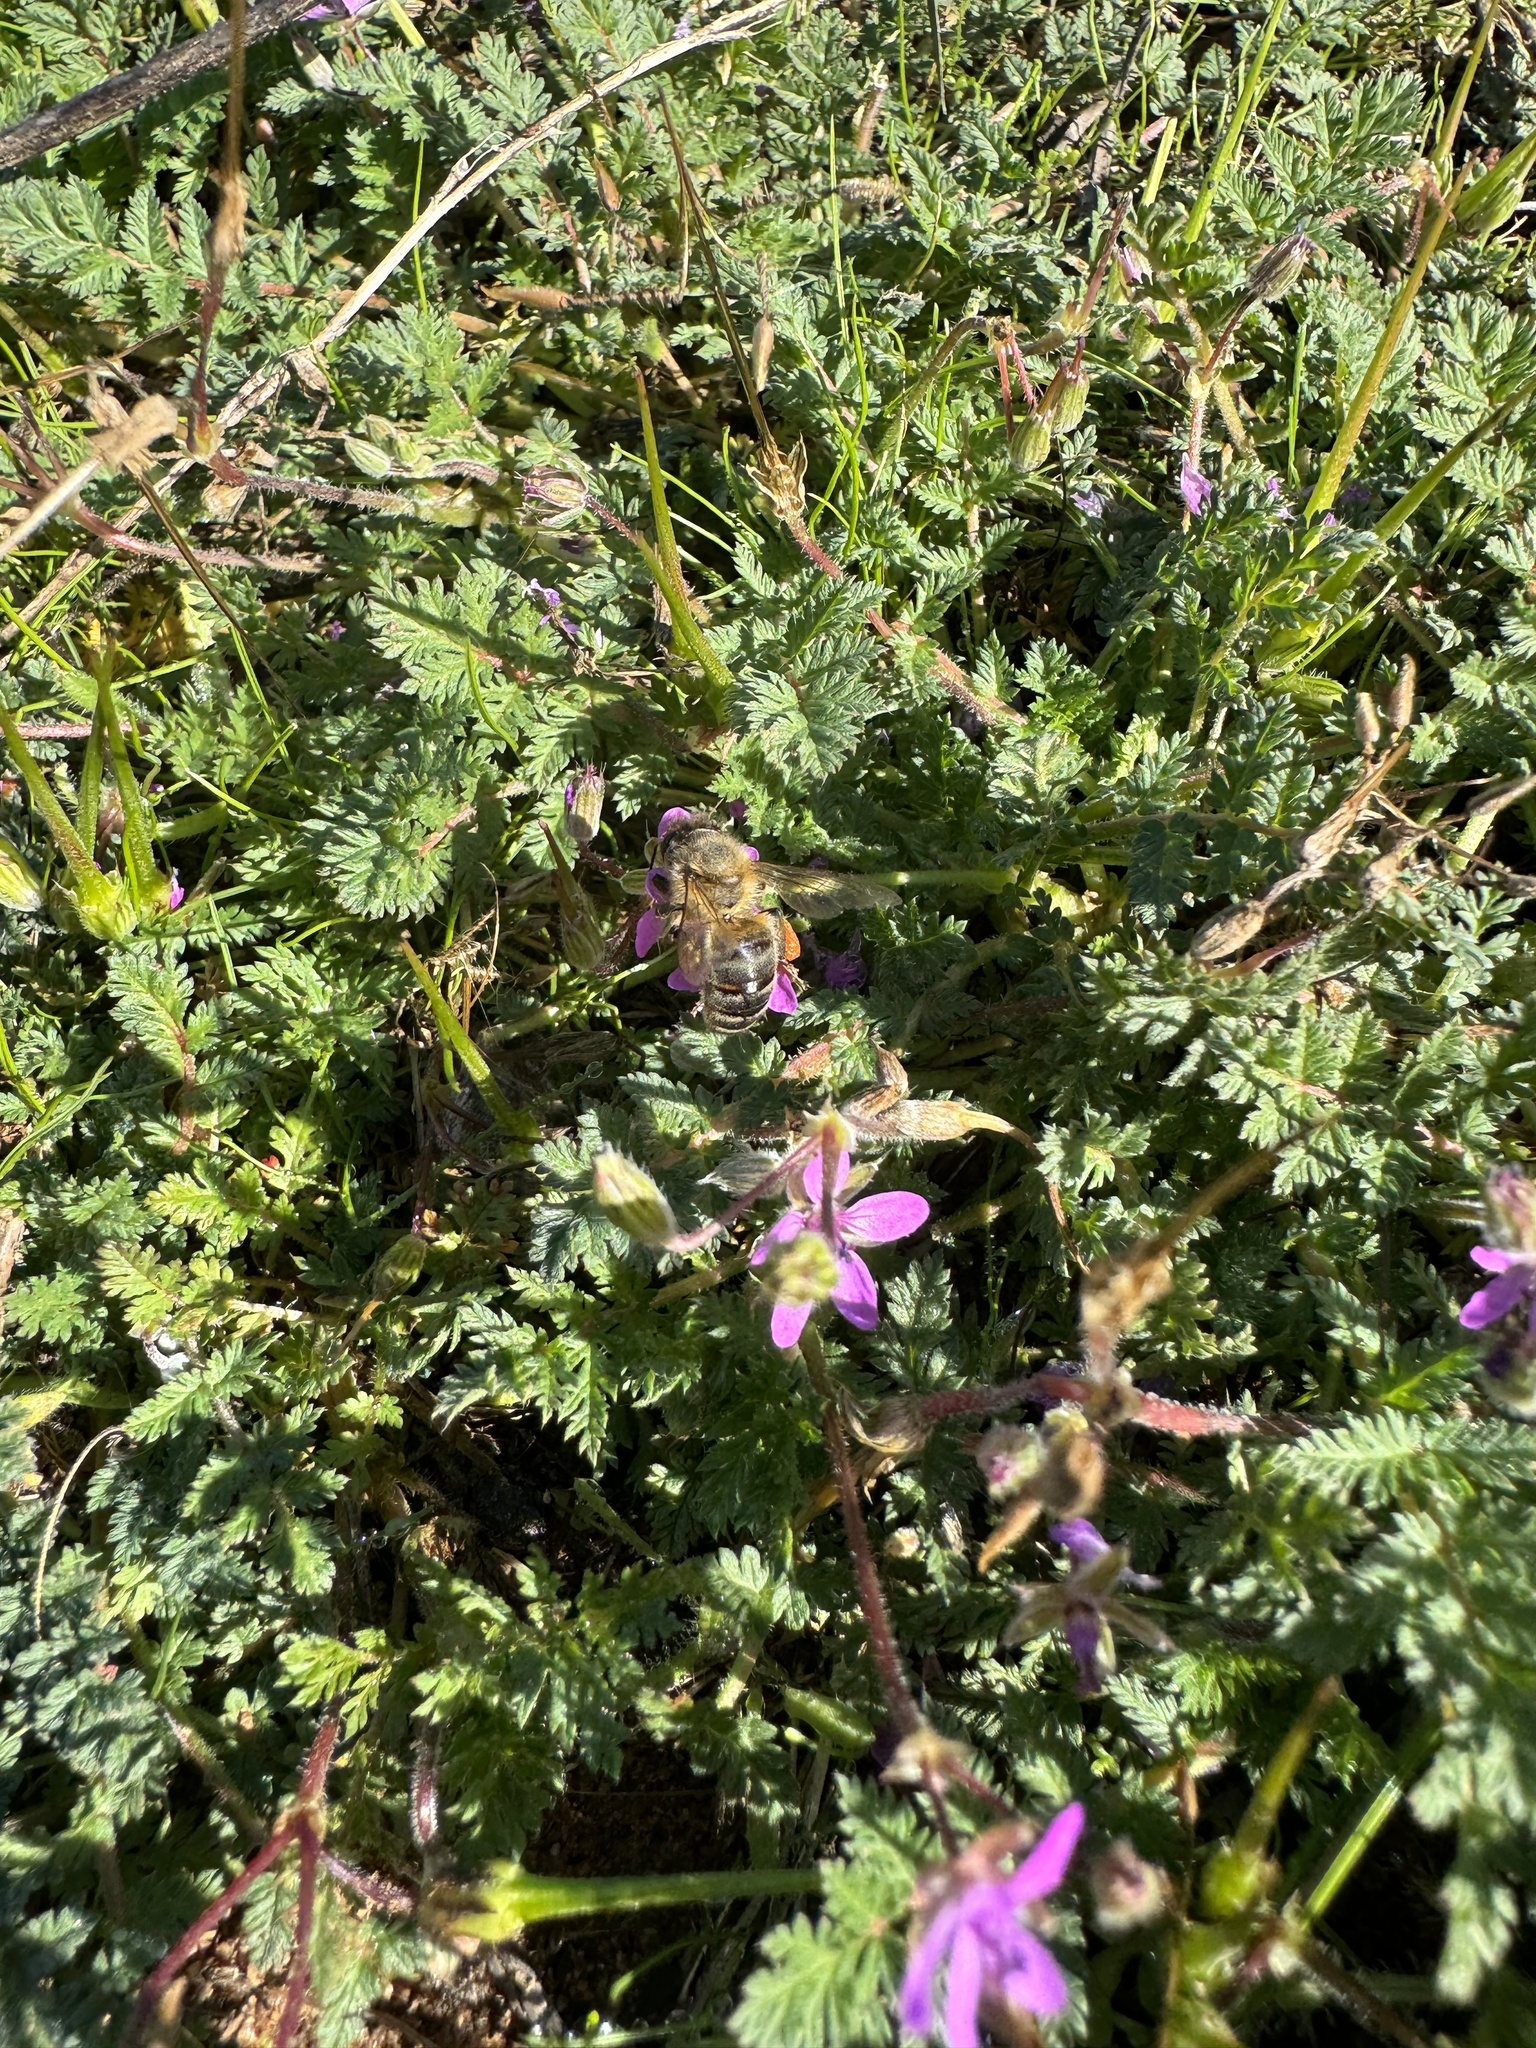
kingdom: Animalia
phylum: Arthropoda
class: Insecta
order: Hymenoptera
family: Apidae
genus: Apis
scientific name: Apis mellifera
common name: Honey bee
